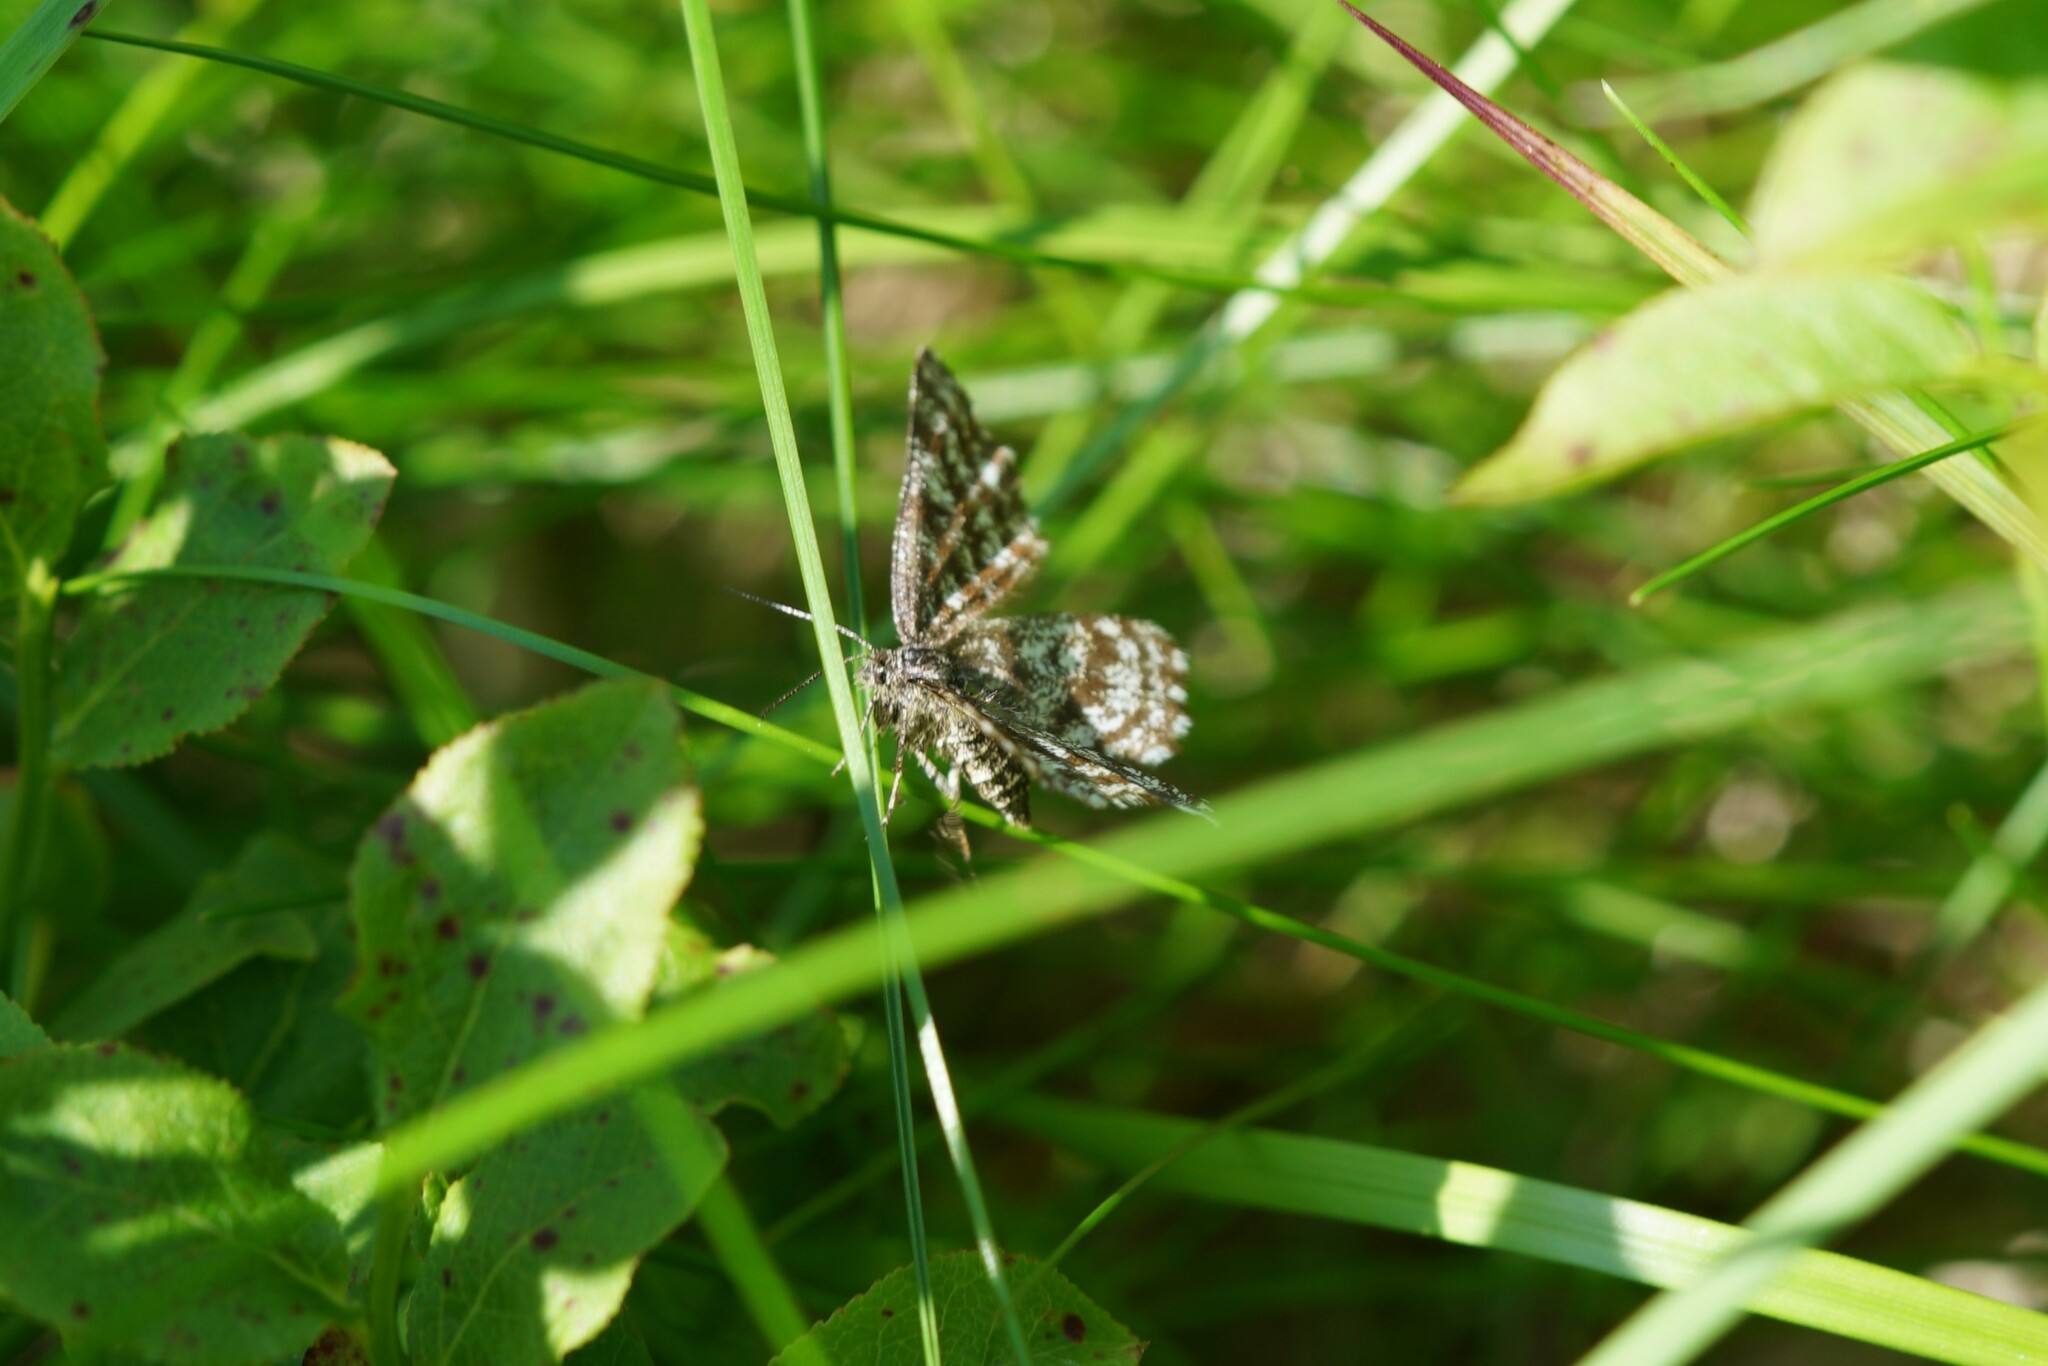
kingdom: Animalia
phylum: Arthropoda
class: Insecta
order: Lepidoptera
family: Geometridae
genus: Chiasmia
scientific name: Chiasmia clathrata
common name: Latticed heath
